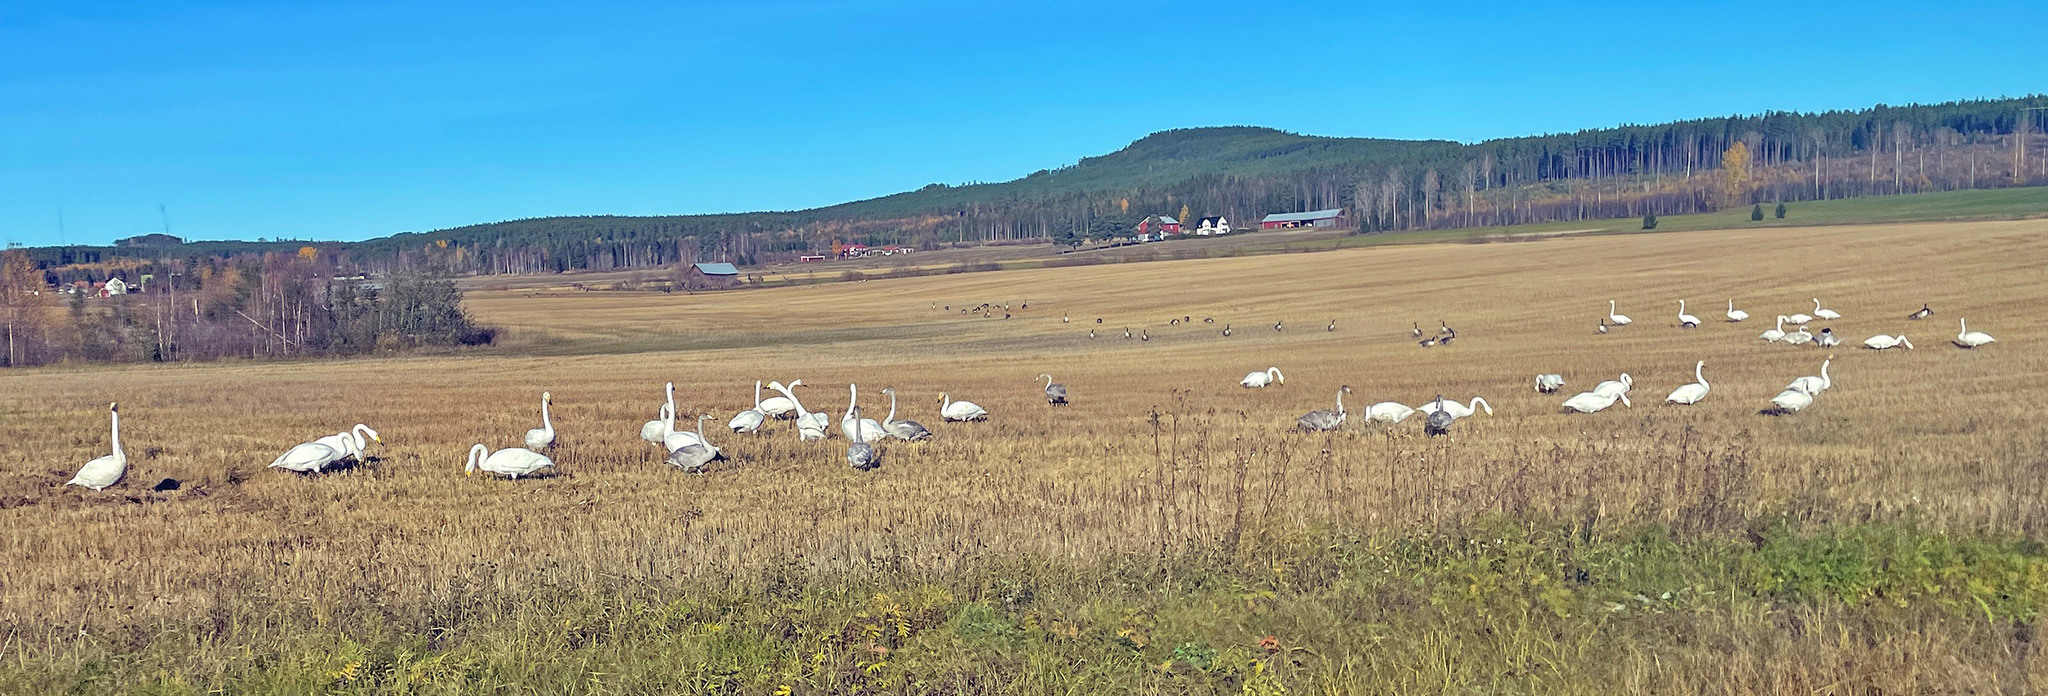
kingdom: Animalia
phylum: Chordata
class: Aves
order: Anseriformes
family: Anatidae
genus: Cygnus
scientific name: Cygnus cygnus
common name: Whooper swan
